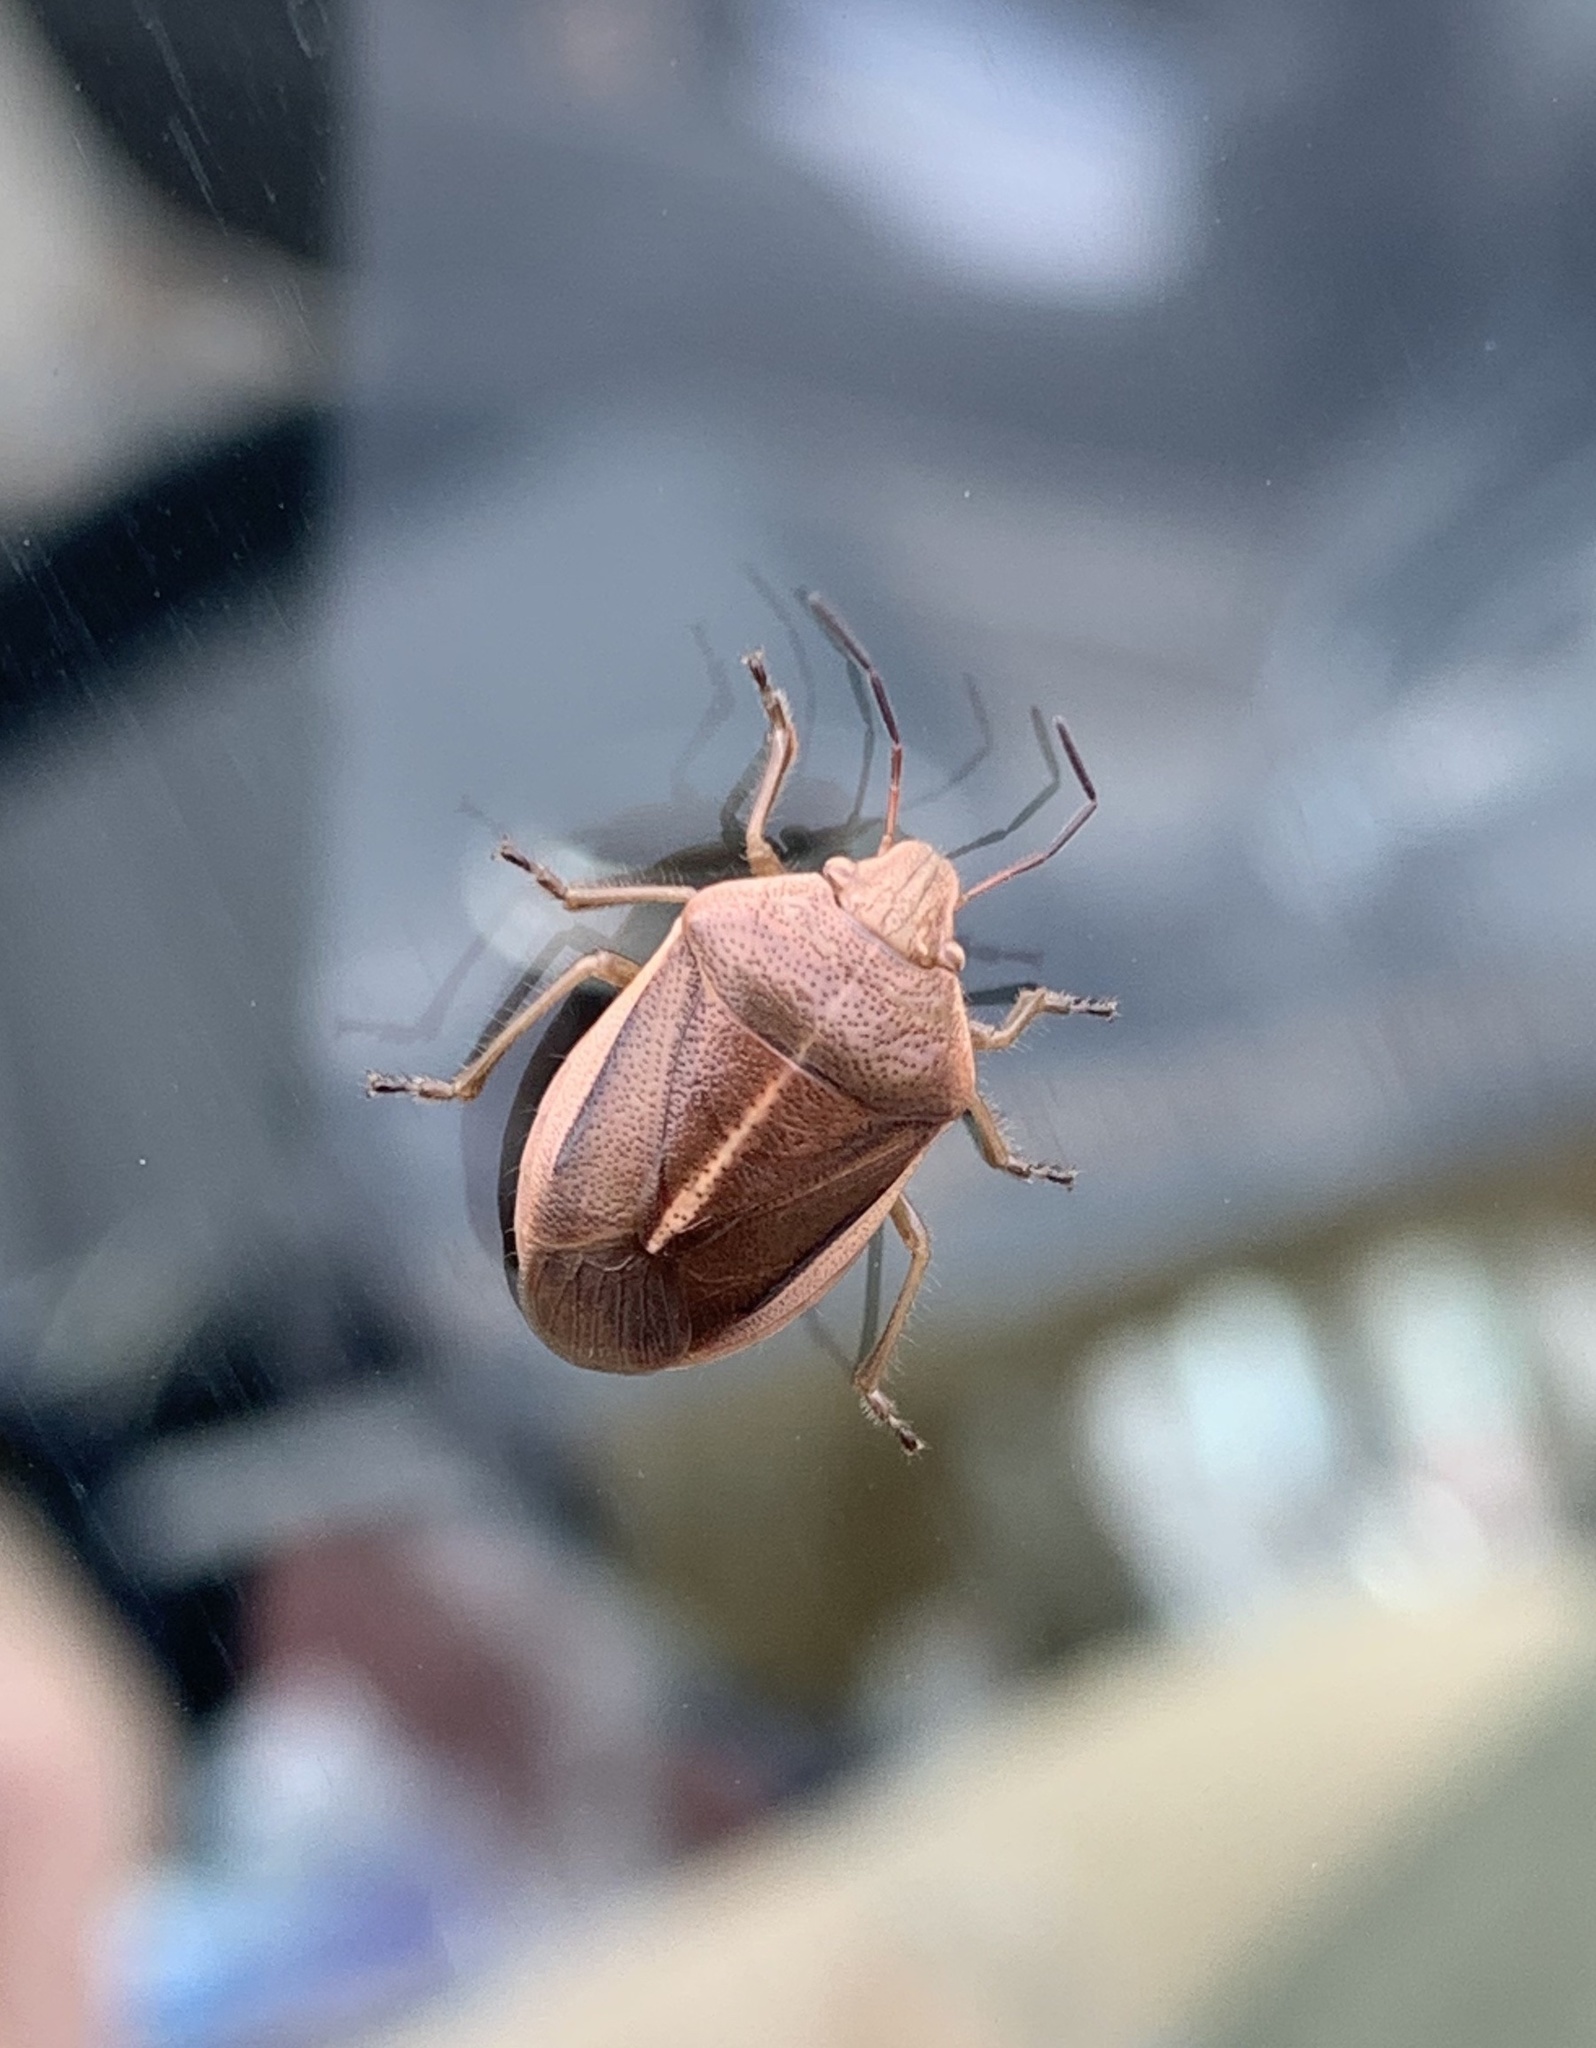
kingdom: Animalia
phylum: Arthropoda
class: Insecta
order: Hemiptera
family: Pentatomidae
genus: Chlorochroa
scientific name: Chlorochroa saucia
